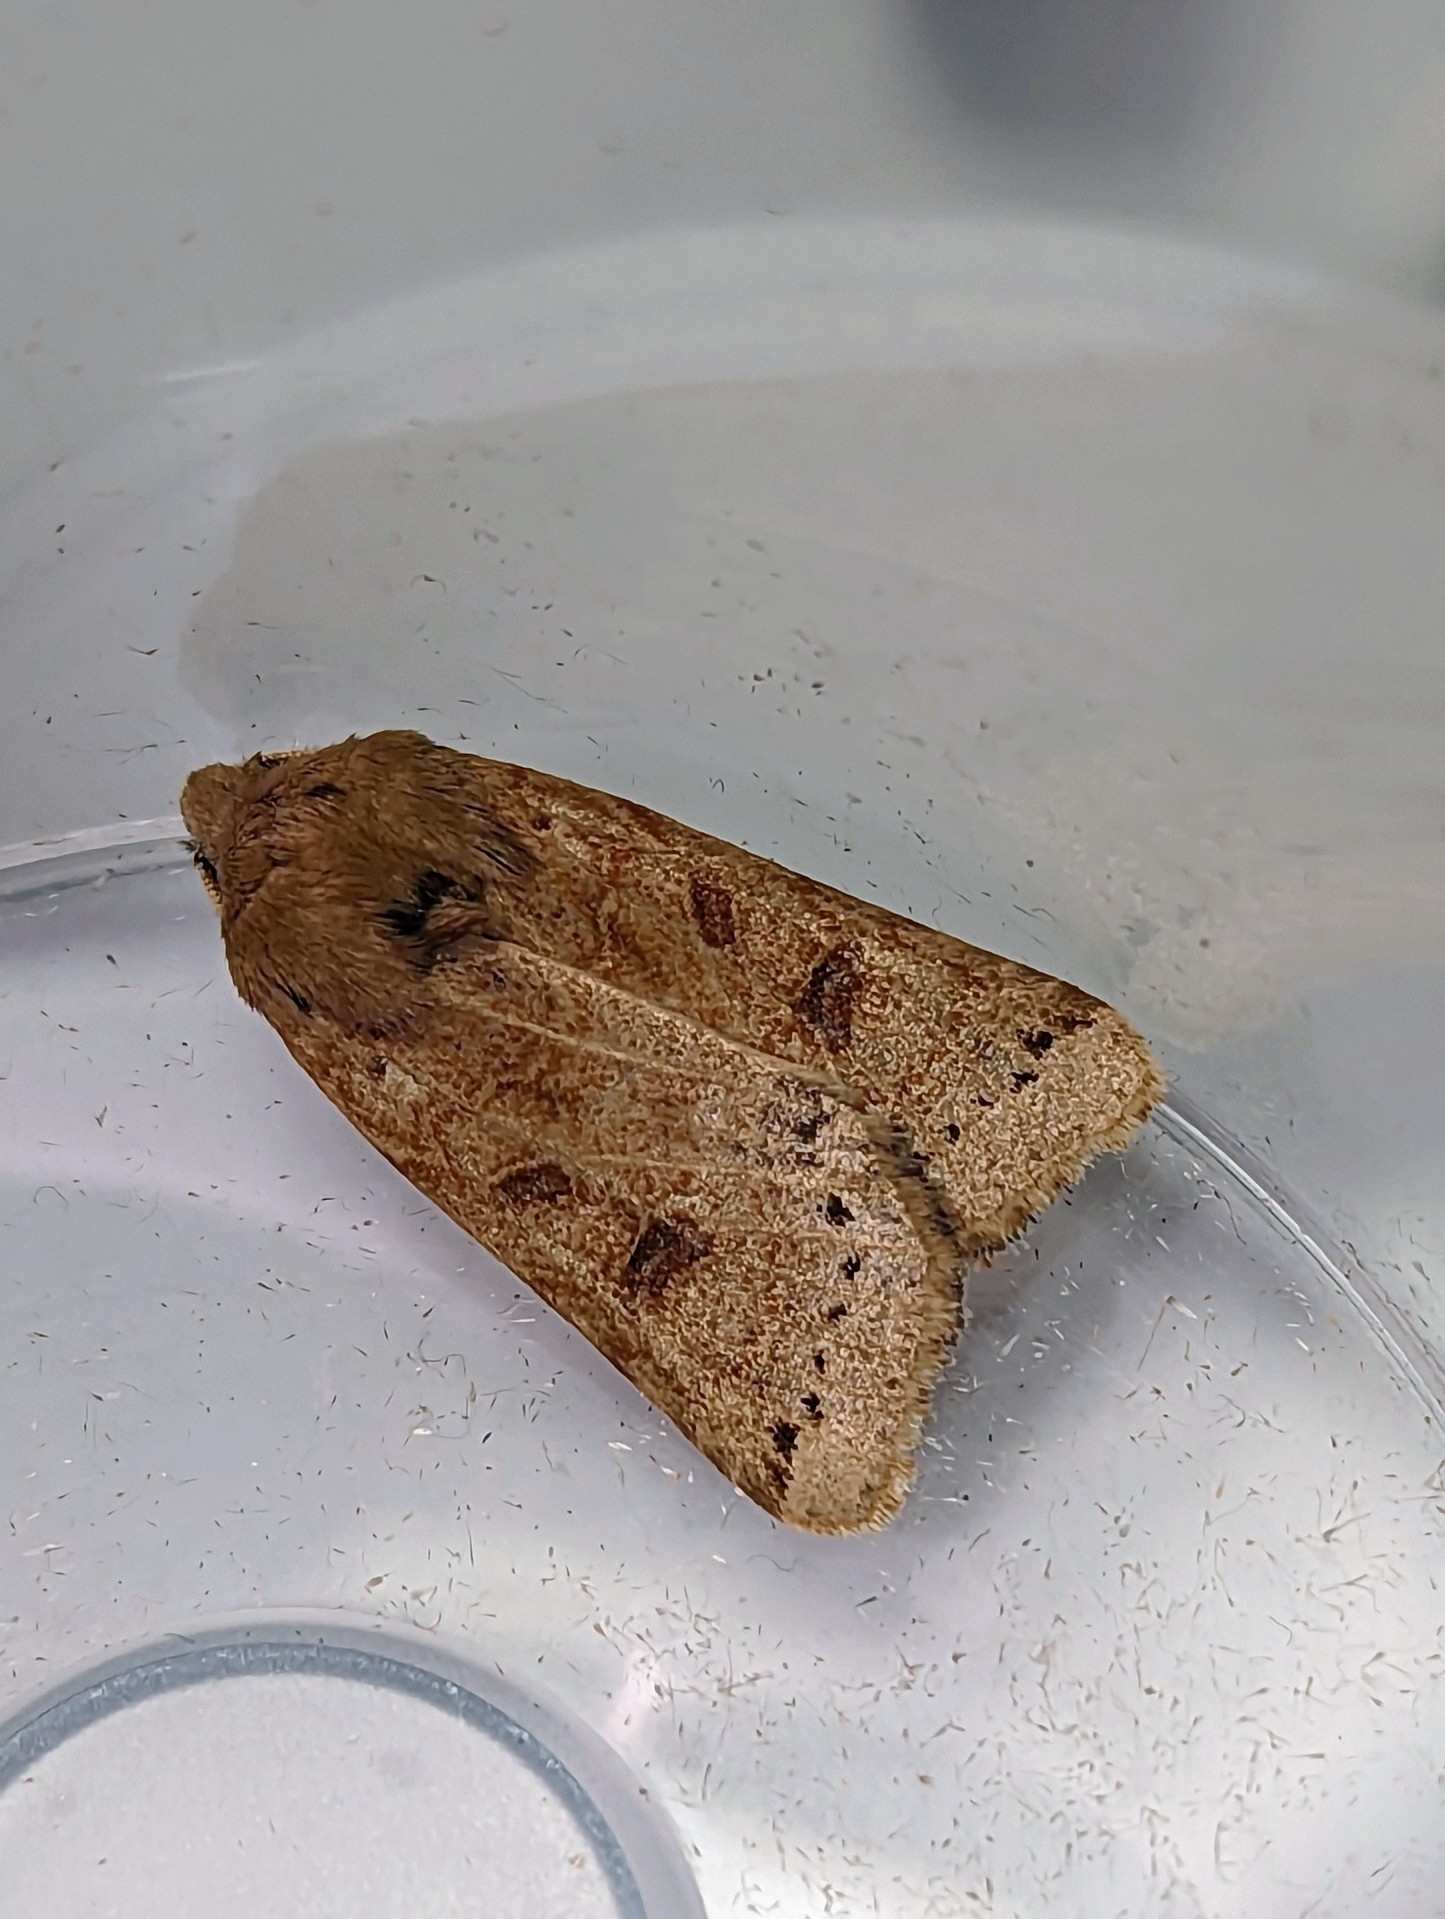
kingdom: Animalia
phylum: Arthropoda
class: Insecta
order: Lepidoptera
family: Noctuidae
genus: Agrochola
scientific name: Agrochola lunosa
